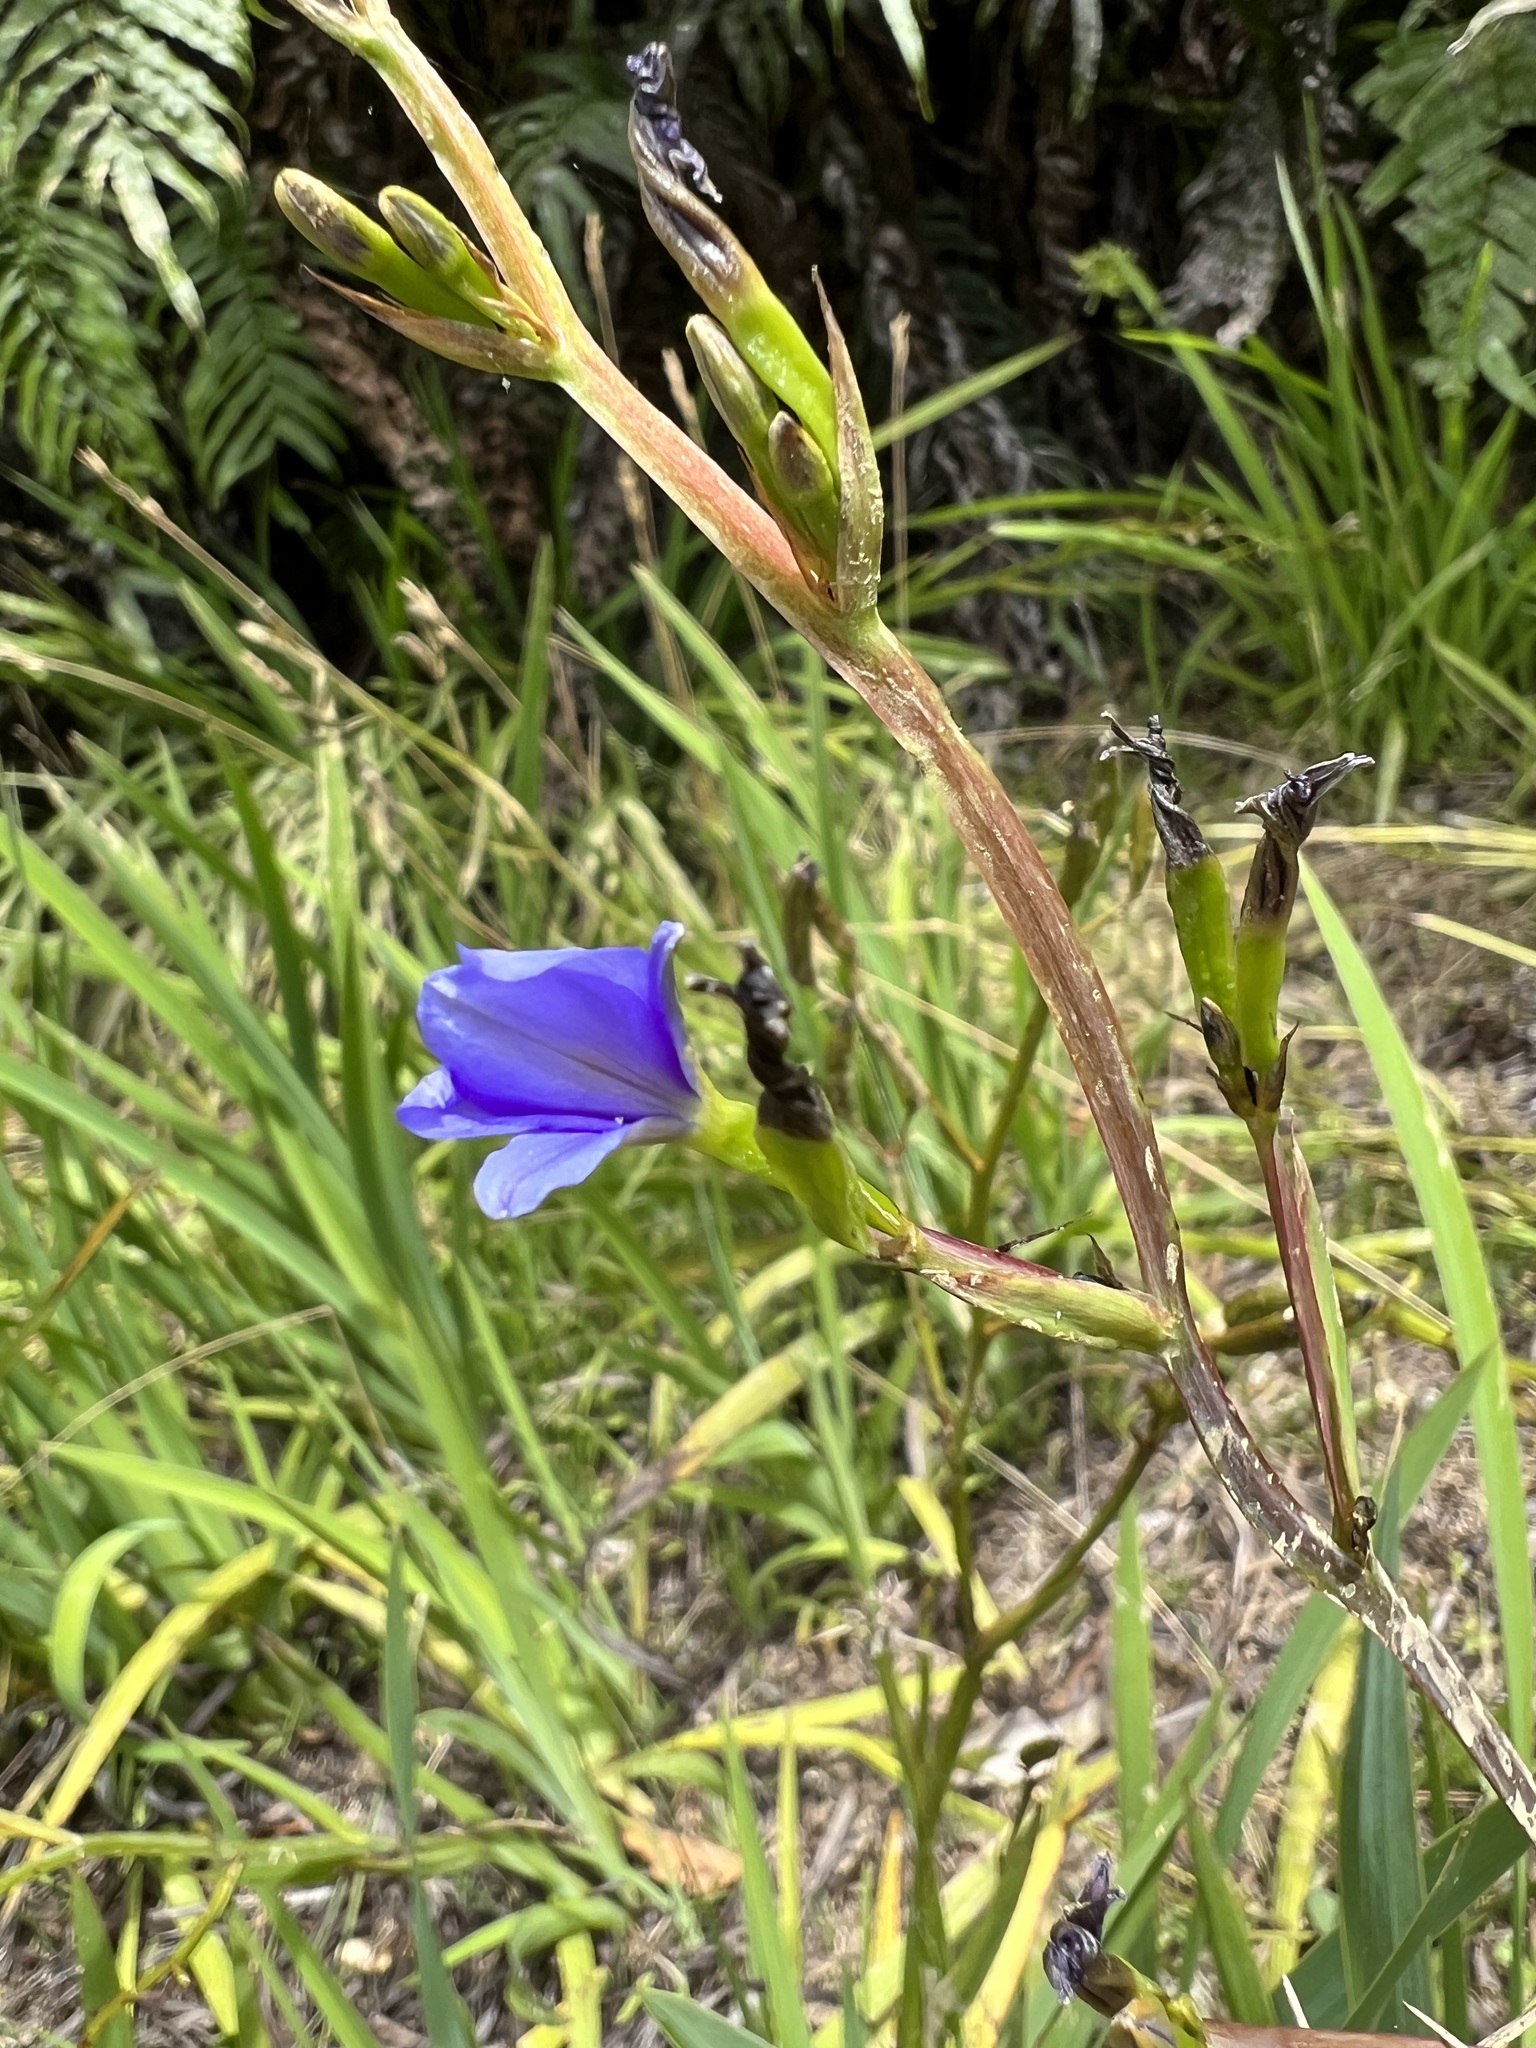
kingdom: Plantae
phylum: Tracheophyta
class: Liliopsida
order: Asparagales
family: Iridaceae
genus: Aristea
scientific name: Aristea ecklonii
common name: Blue corn-lily
